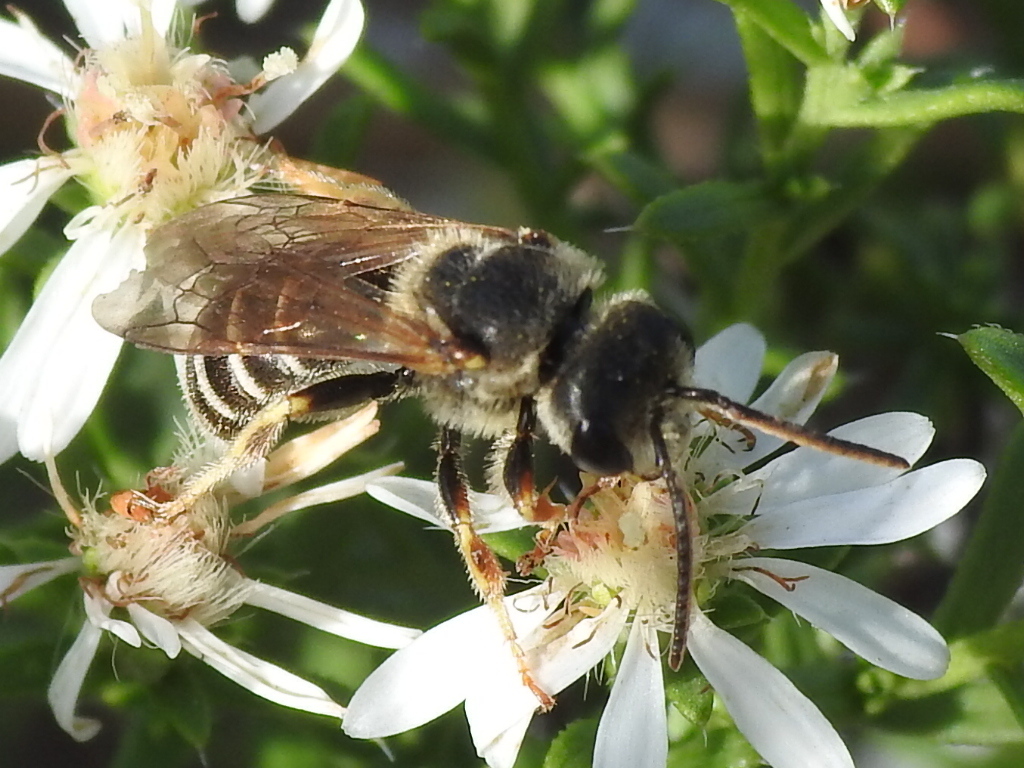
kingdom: Animalia
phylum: Arthropoda
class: Insecta
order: Hymenoptera
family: Halictidae
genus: Halictus
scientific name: Halictus ligatus
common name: Ligated furrow bee
